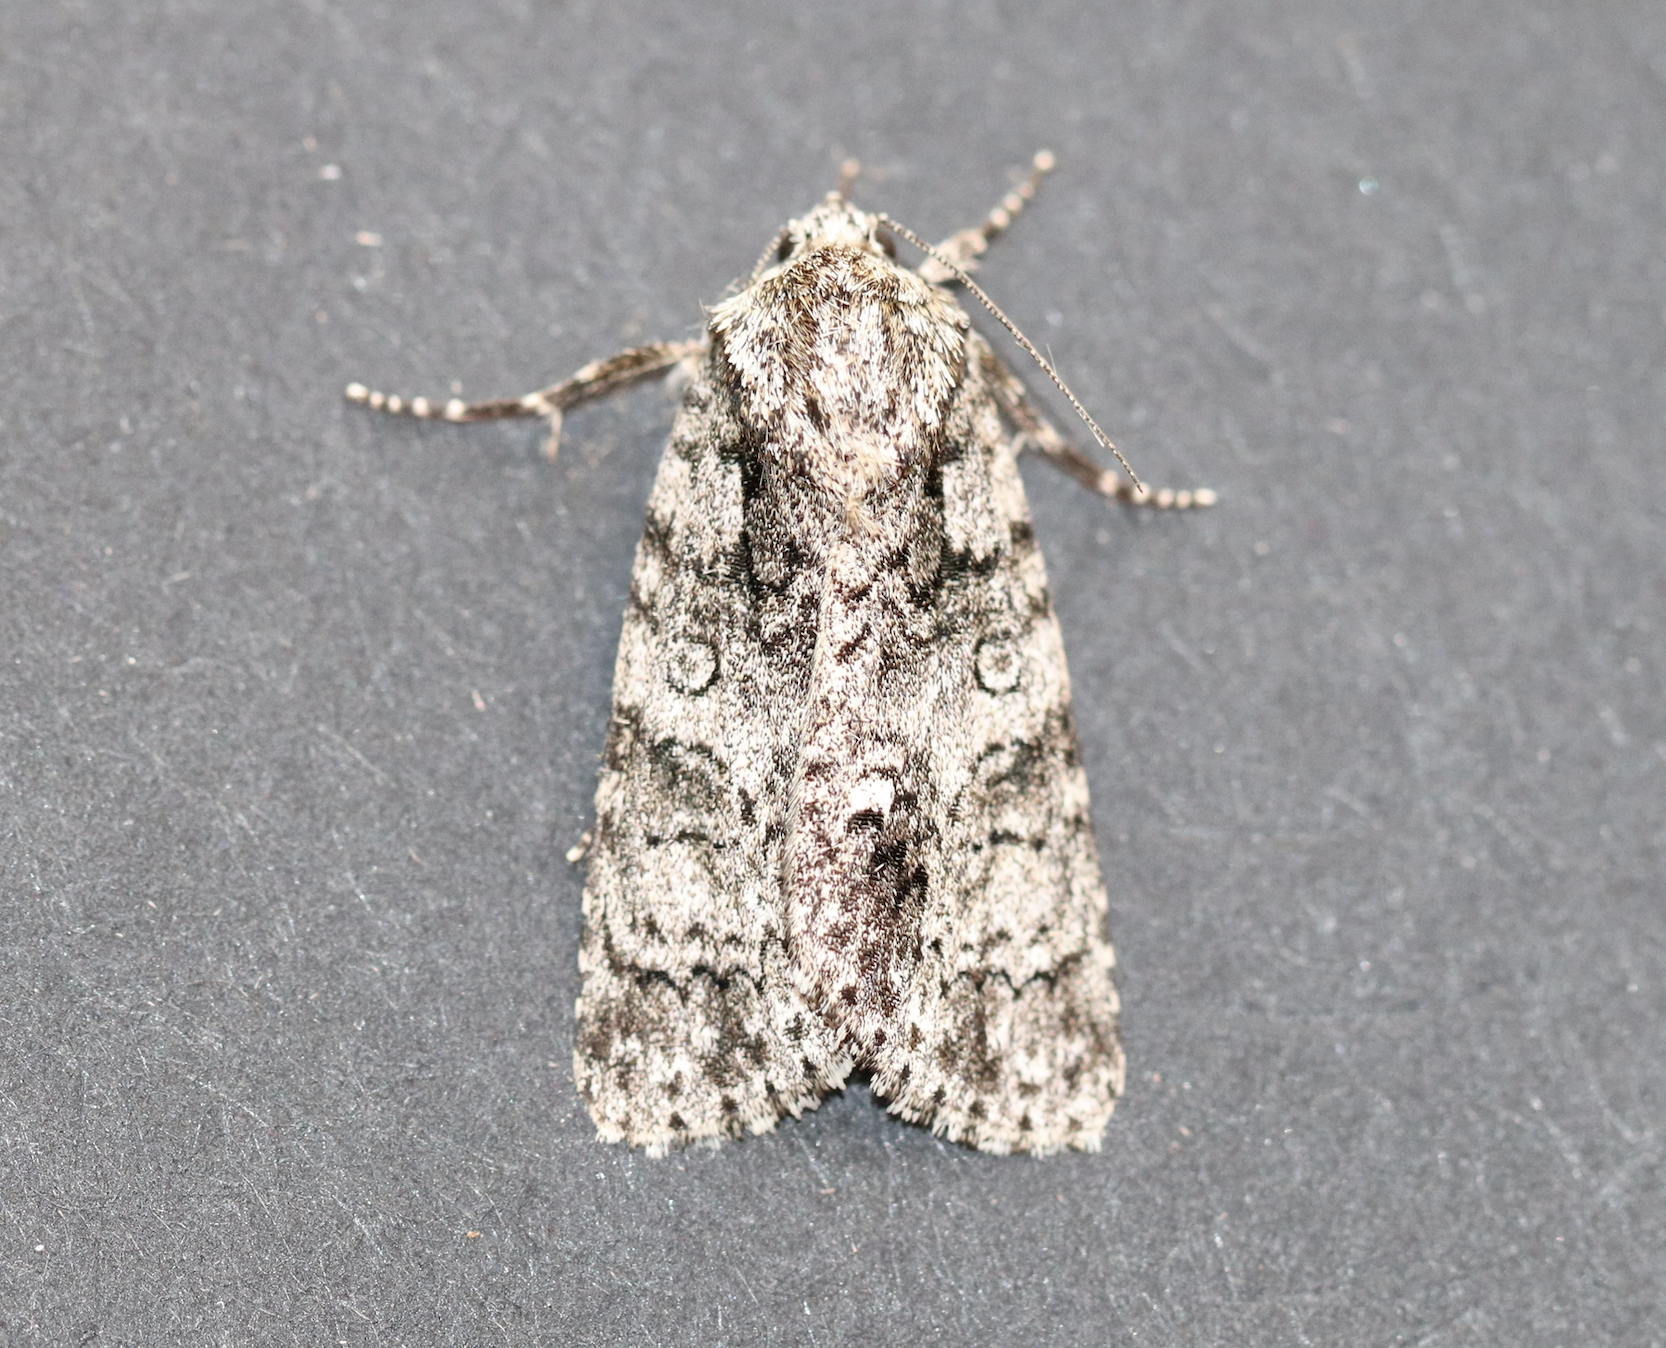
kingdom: Animalia
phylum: Arthropoda
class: Insecta
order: Lepidoptera
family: Noctuidae
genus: Acronicta
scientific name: Acronicta rumicis
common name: Knot grass
